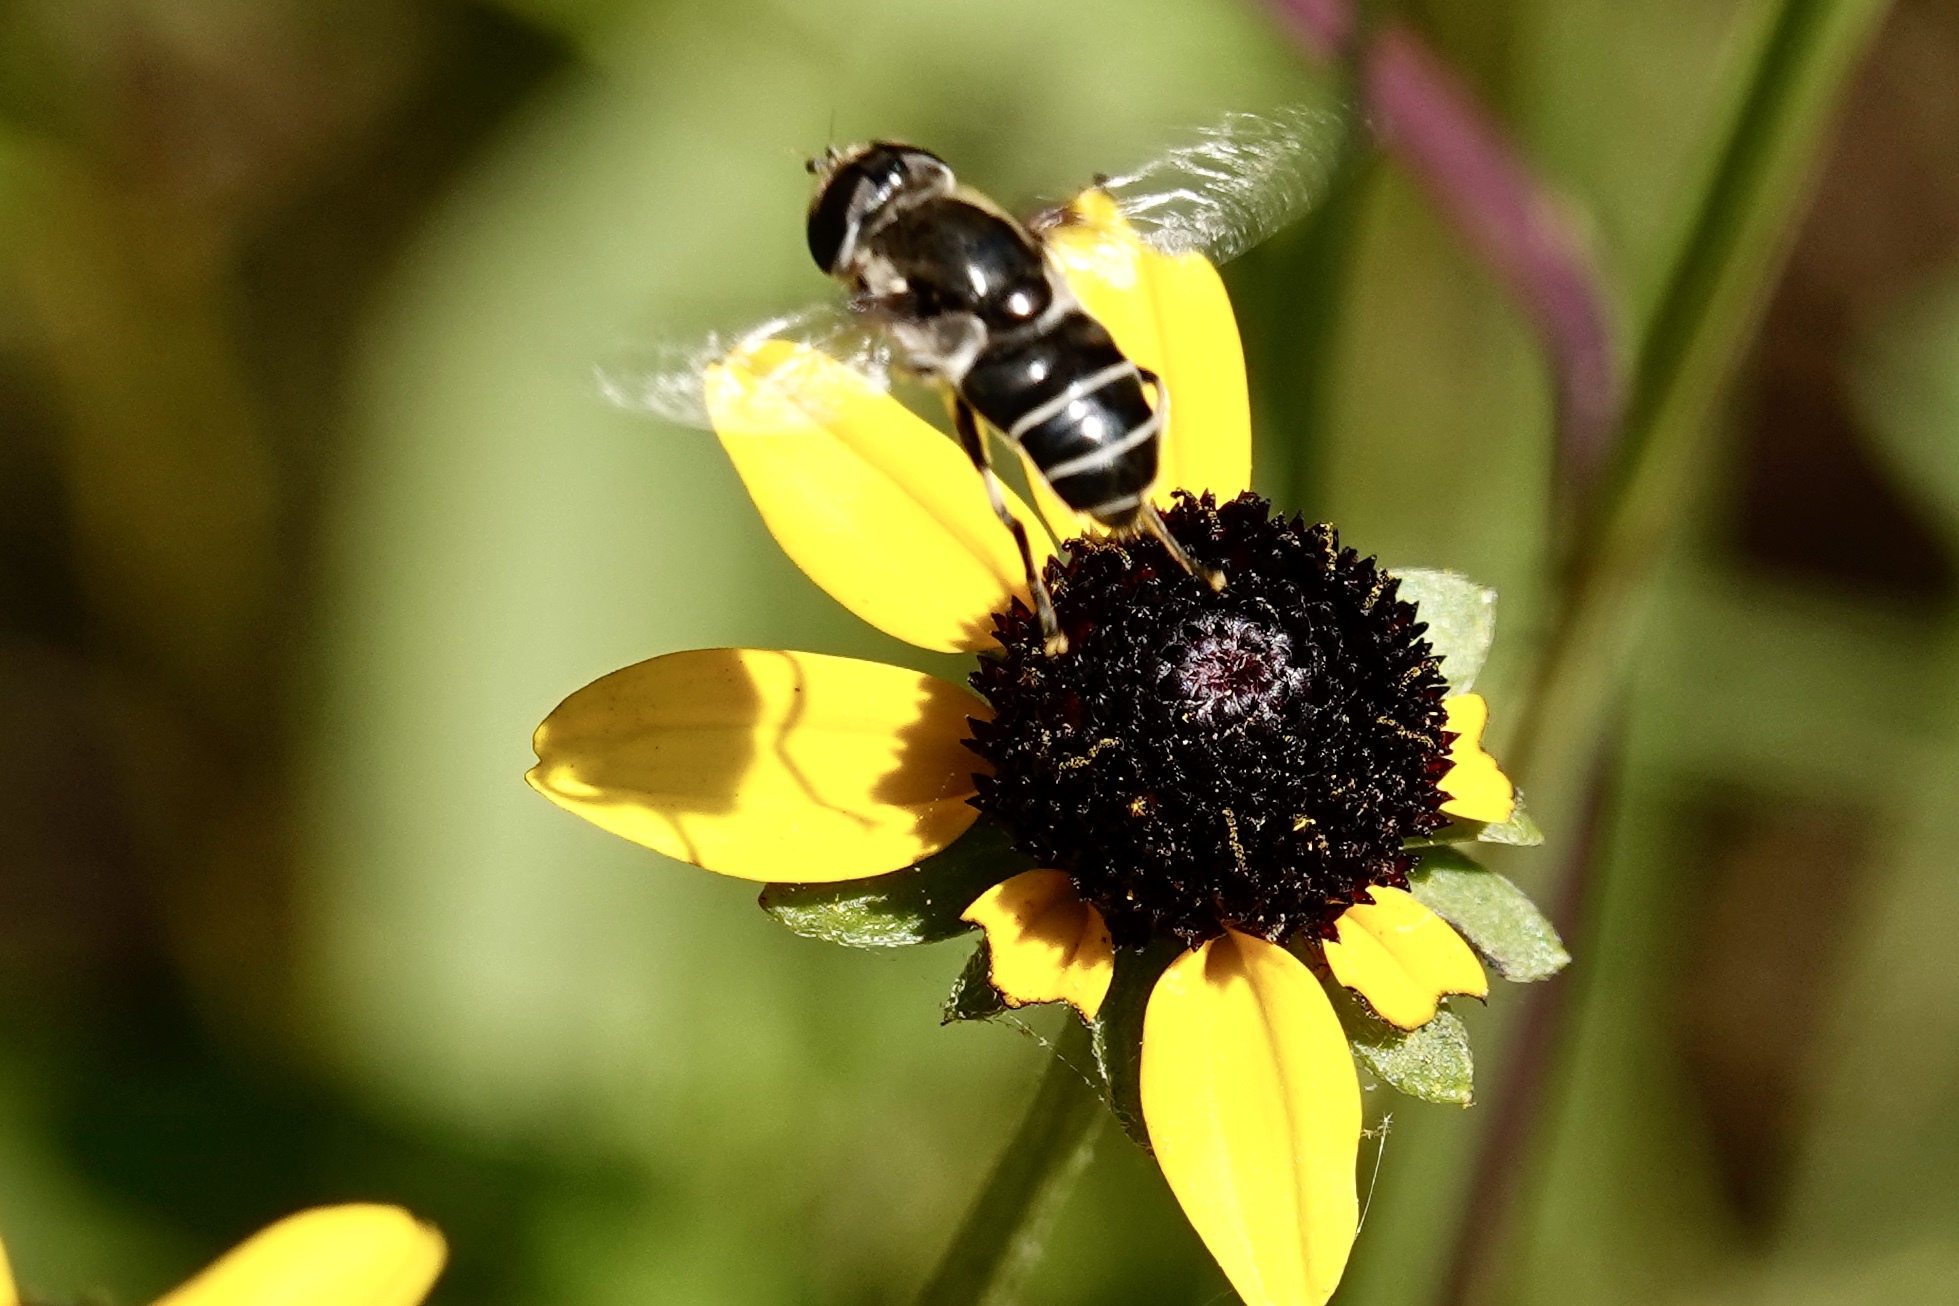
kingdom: Animalia
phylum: Arthropoda
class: Insecta
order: Diptera
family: Syrphidae
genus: Eristalis
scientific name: Eristalis dimidiata
